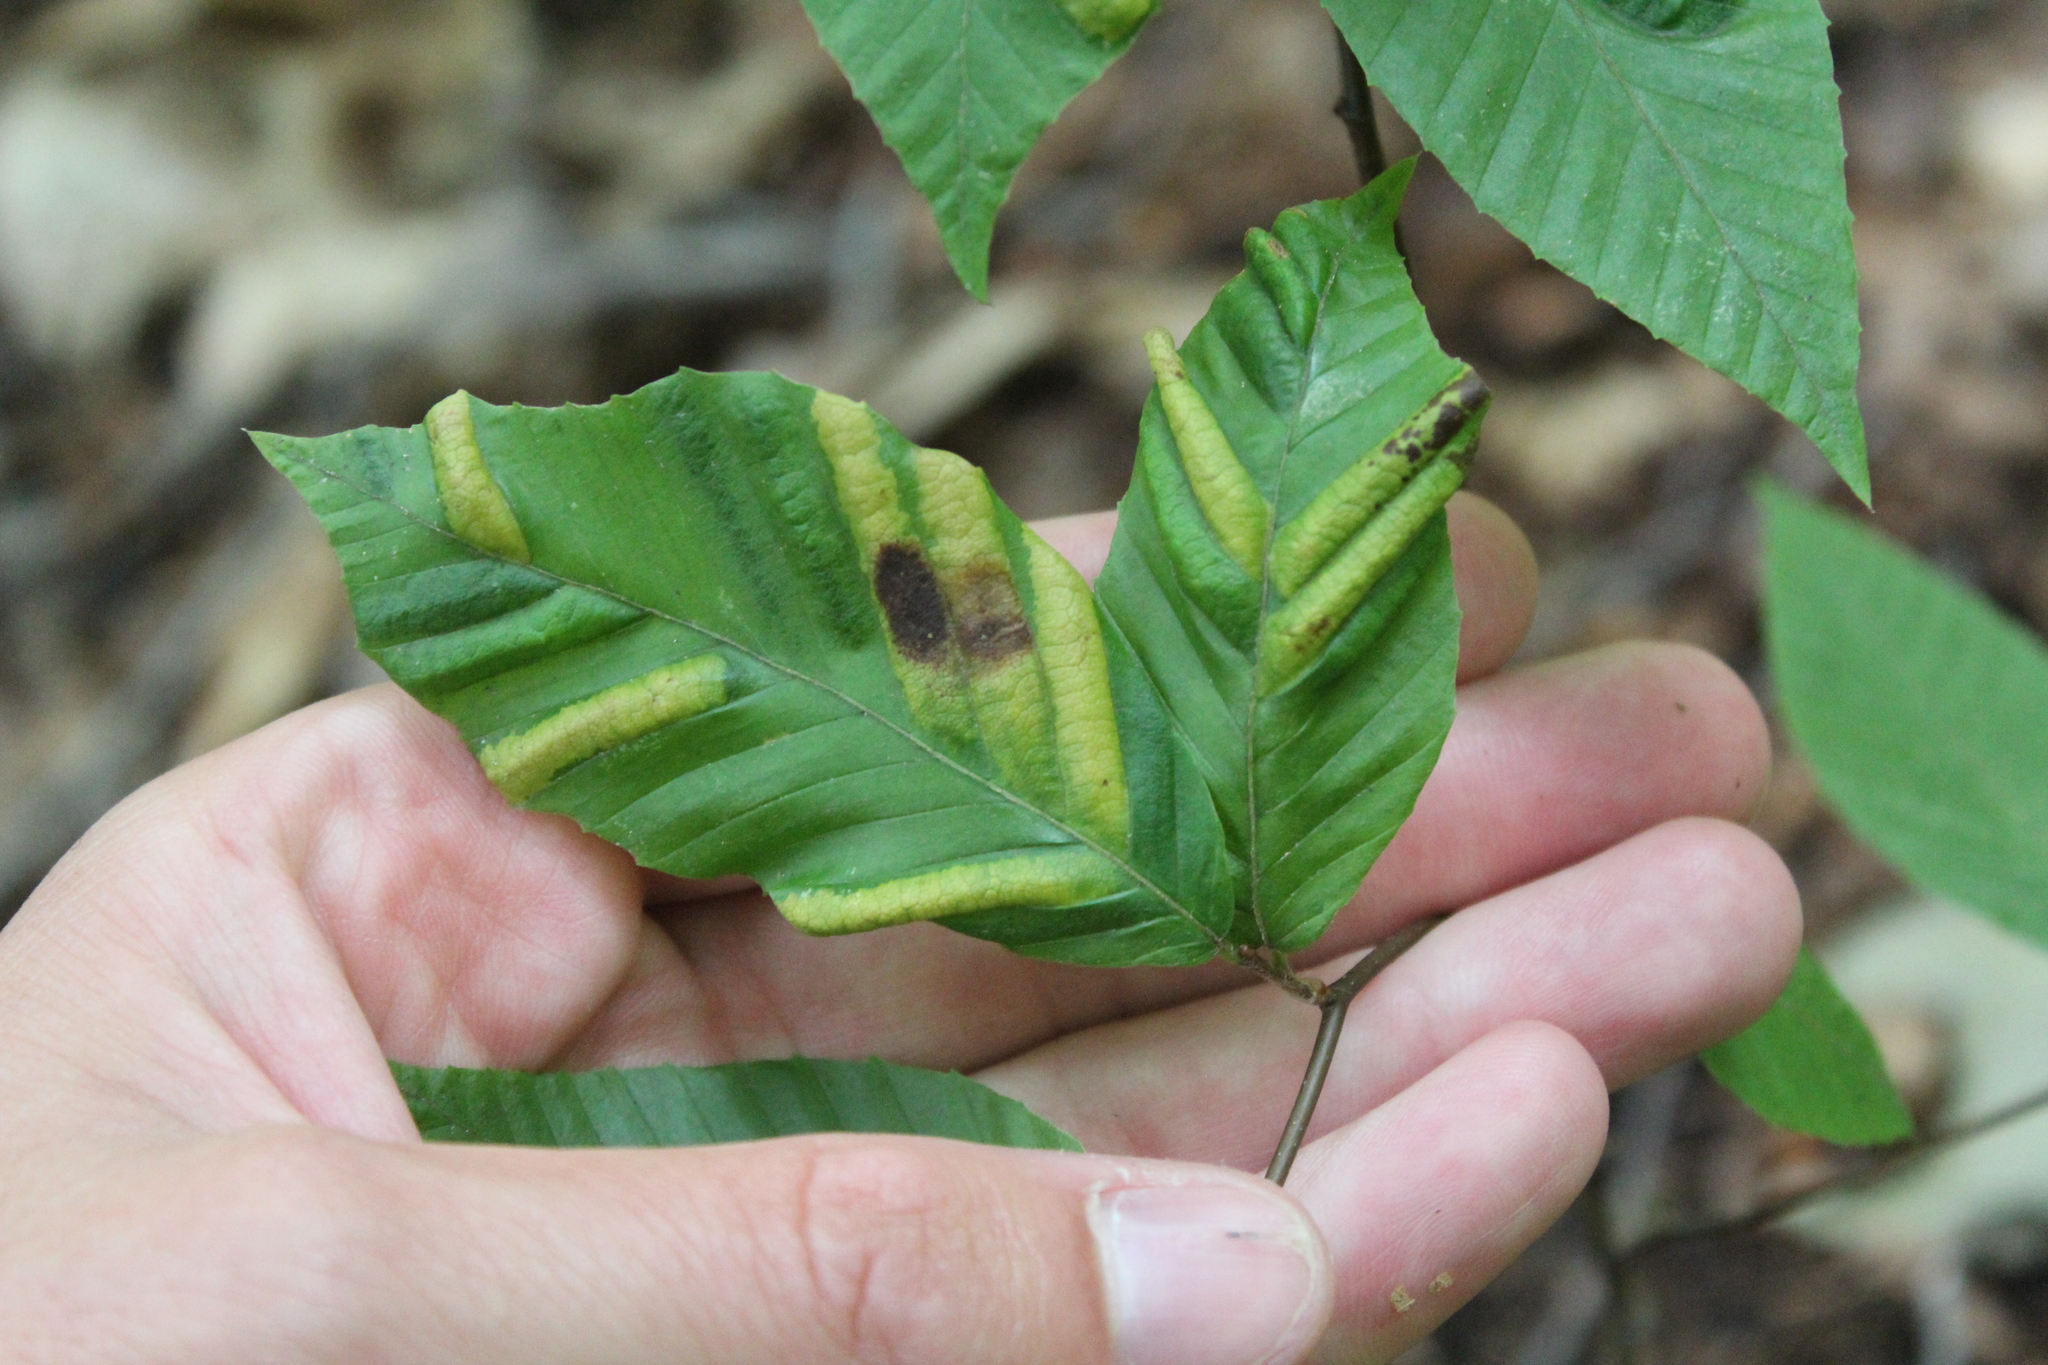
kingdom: Animalia
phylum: Nematoda
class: Chromadorea
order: Rhabditida
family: Anguinidae
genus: Litylenchus
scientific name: Litylenchus crenatae
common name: Beech leaf disease
